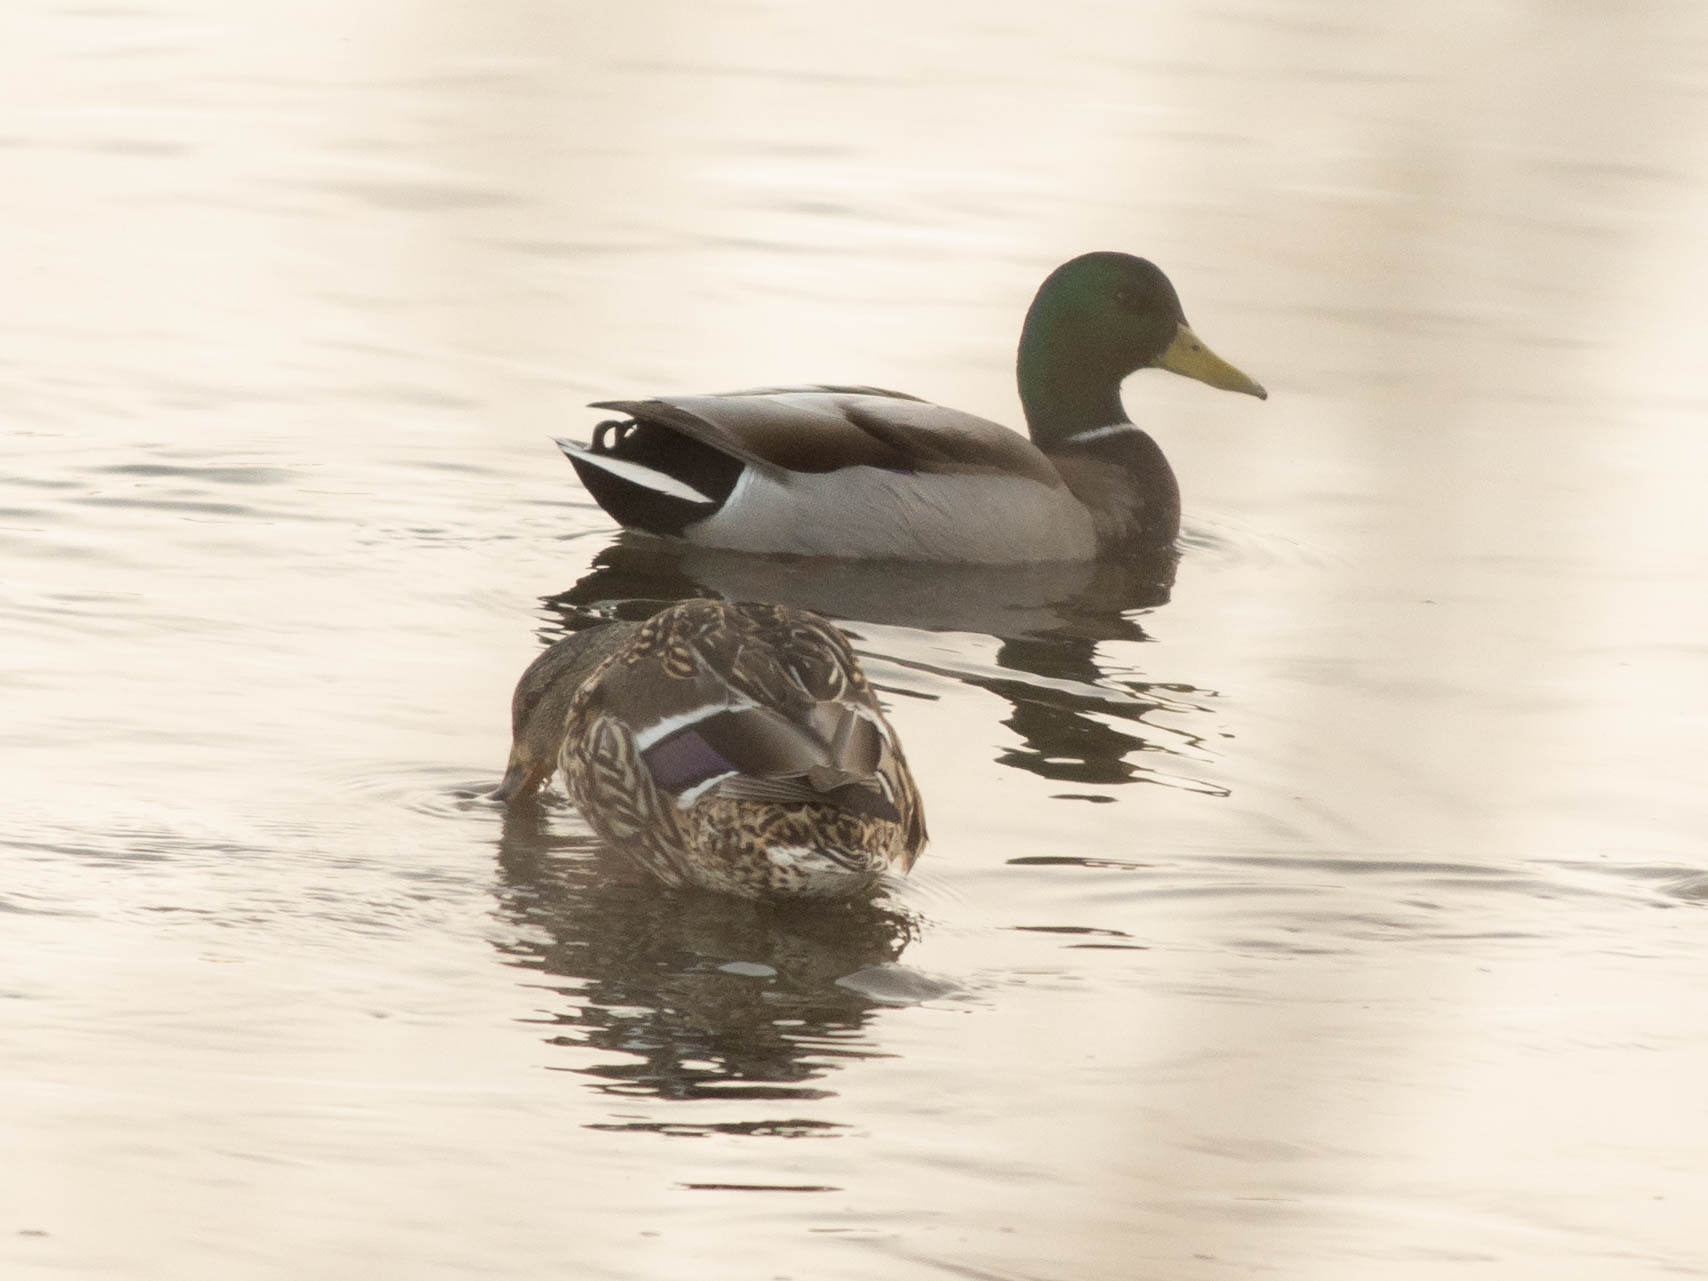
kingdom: Animalia
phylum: Chordata
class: Aves
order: Anseriformes
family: Anatidae
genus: Anas
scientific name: Anas platyrhynchos
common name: Mallard
